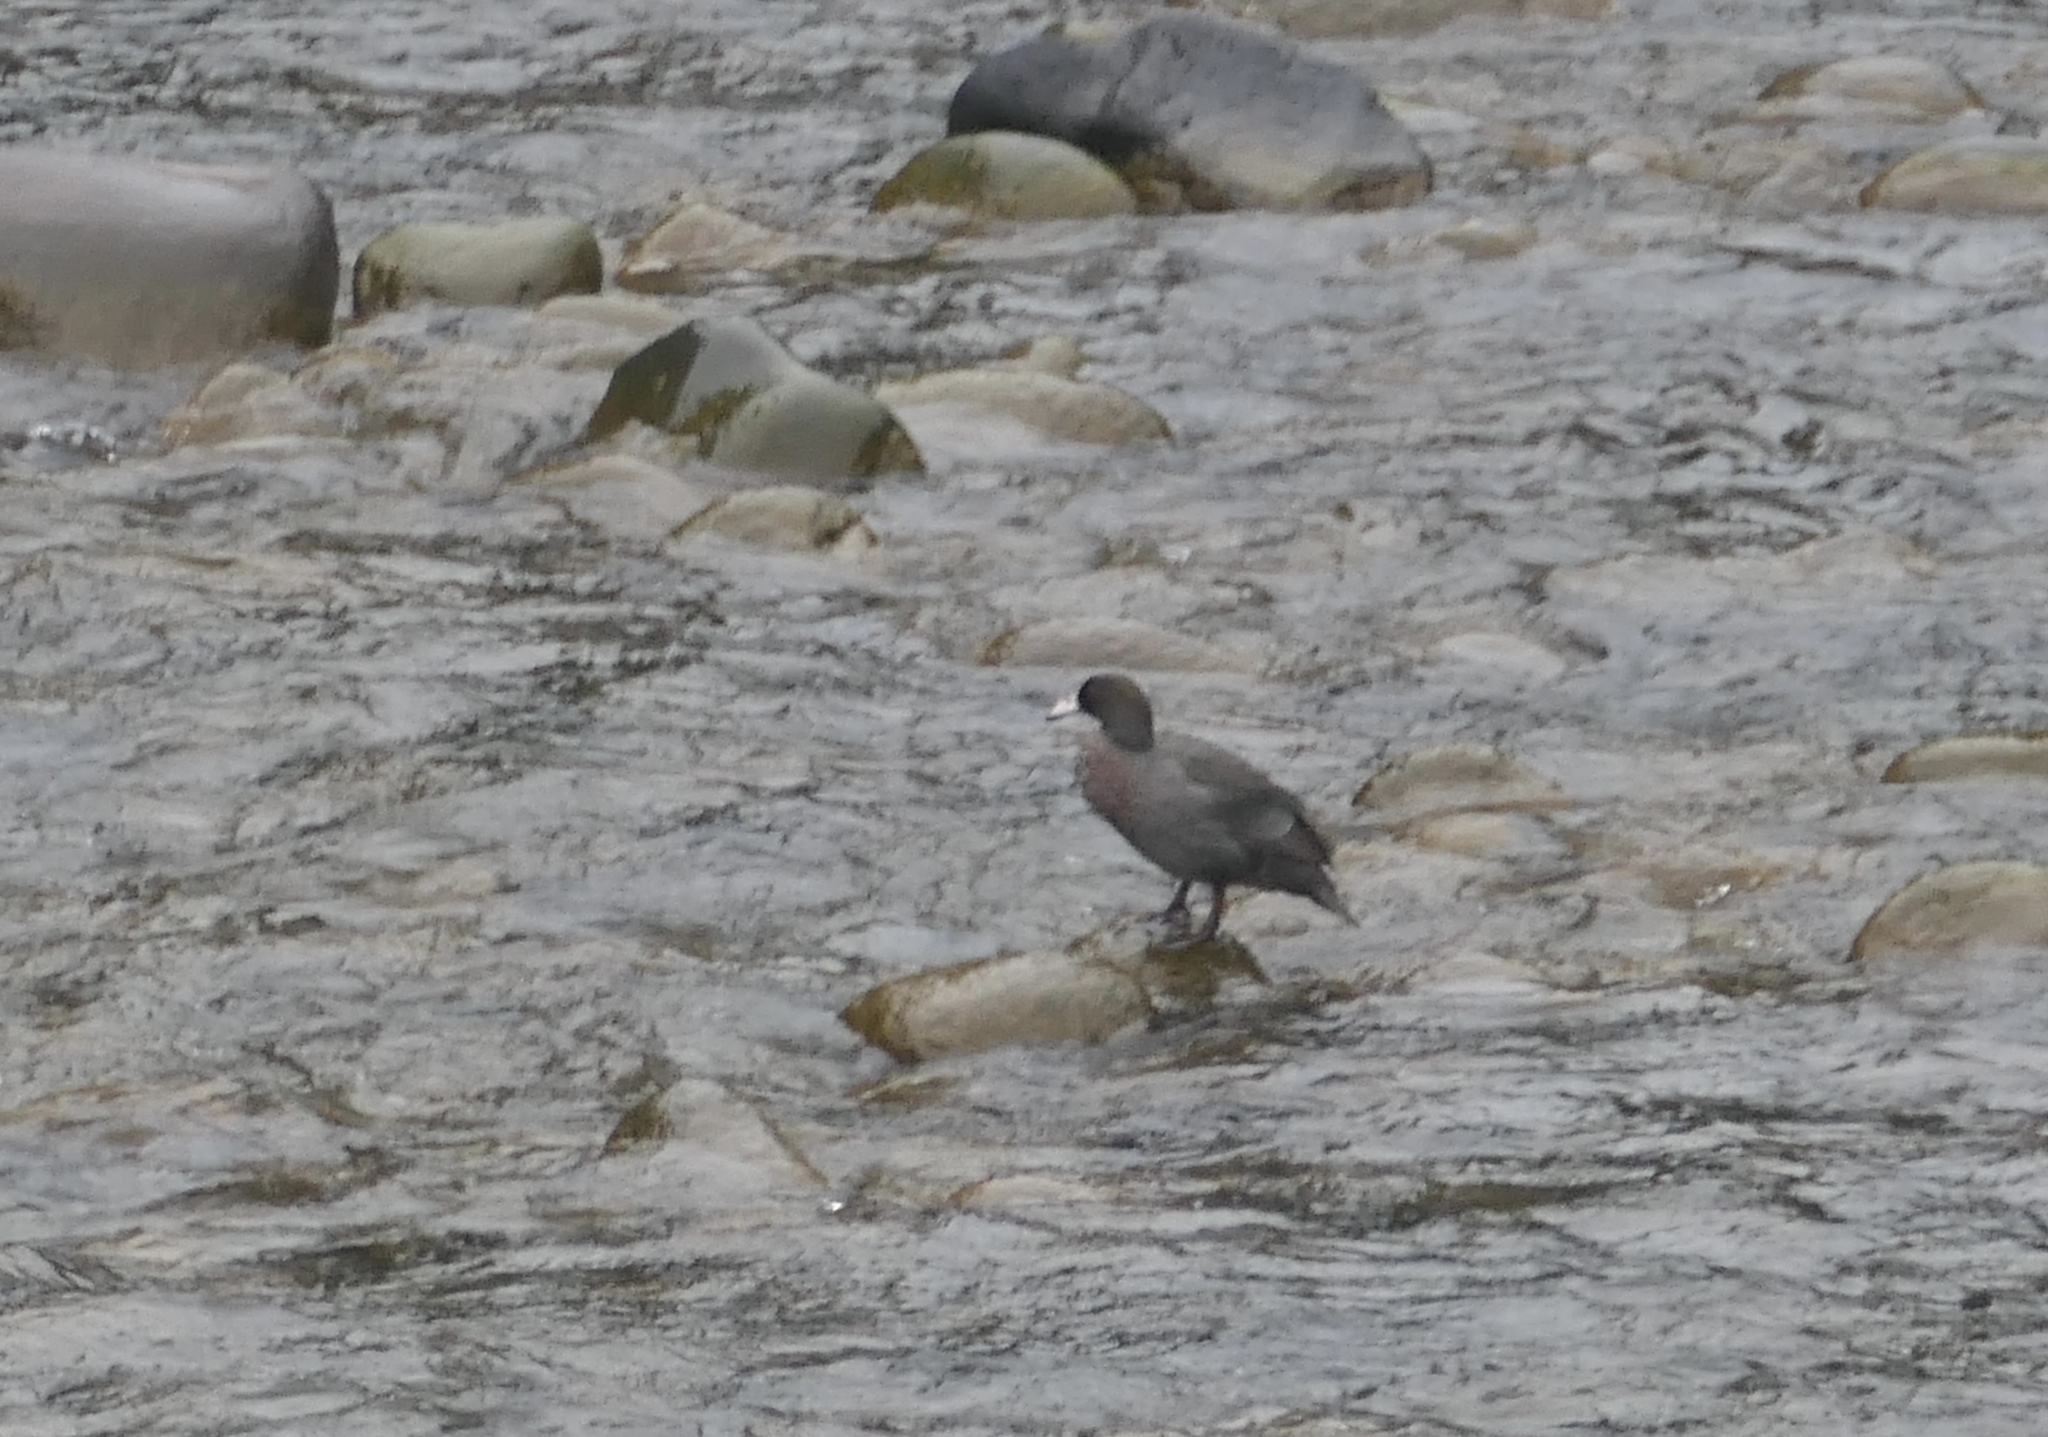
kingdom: Animalia
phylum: Chordata
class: Aves
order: Anseriformes
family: Anatidae
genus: Hymenolaimus
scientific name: Hymenolaimus malacorhynchos
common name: Blue duck
